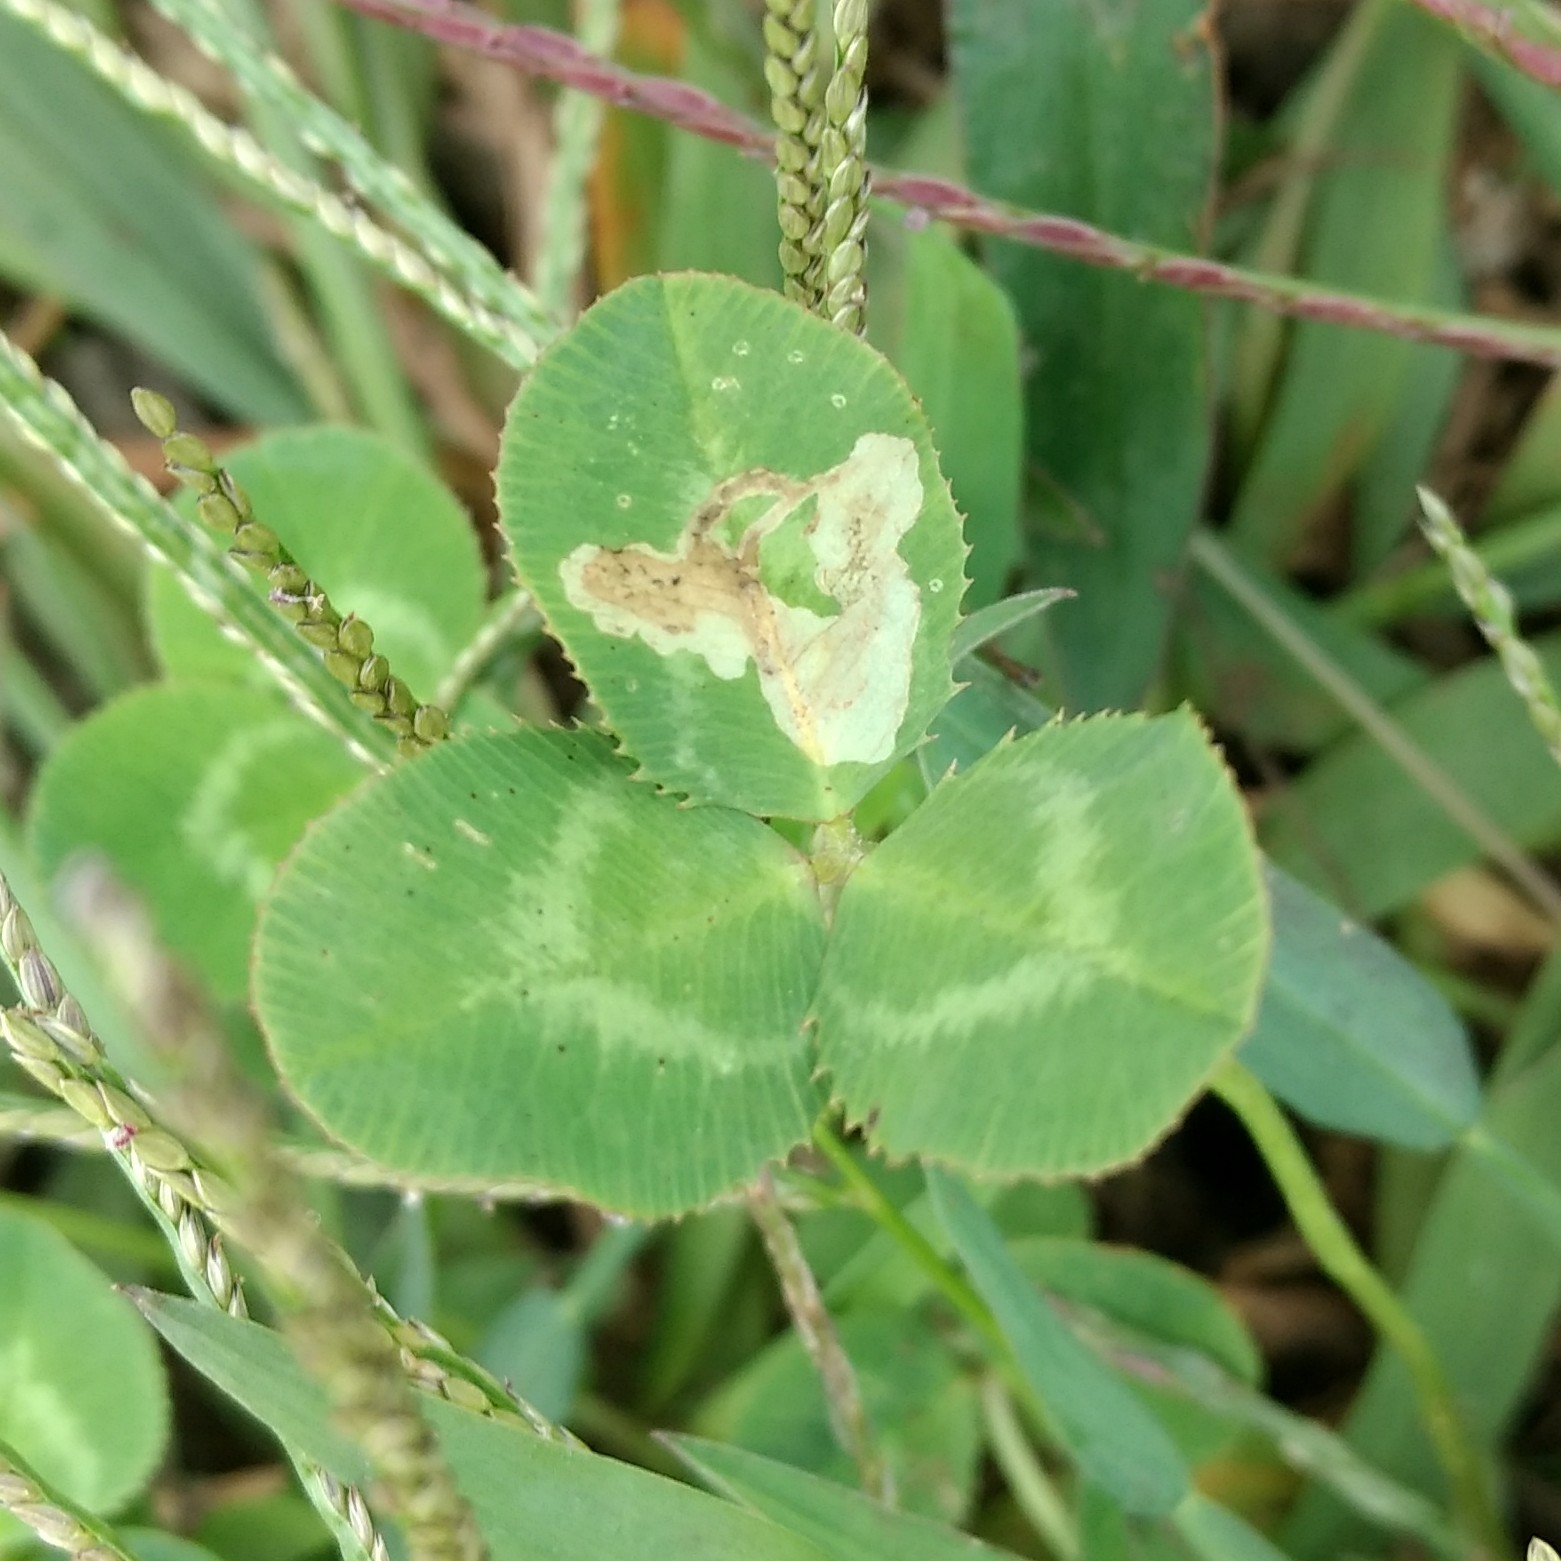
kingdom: Animalia
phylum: Arthropoda
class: Insecta
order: Diptera
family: Agromyzidae
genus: Liriomyza
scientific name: Liriomyza fricki
